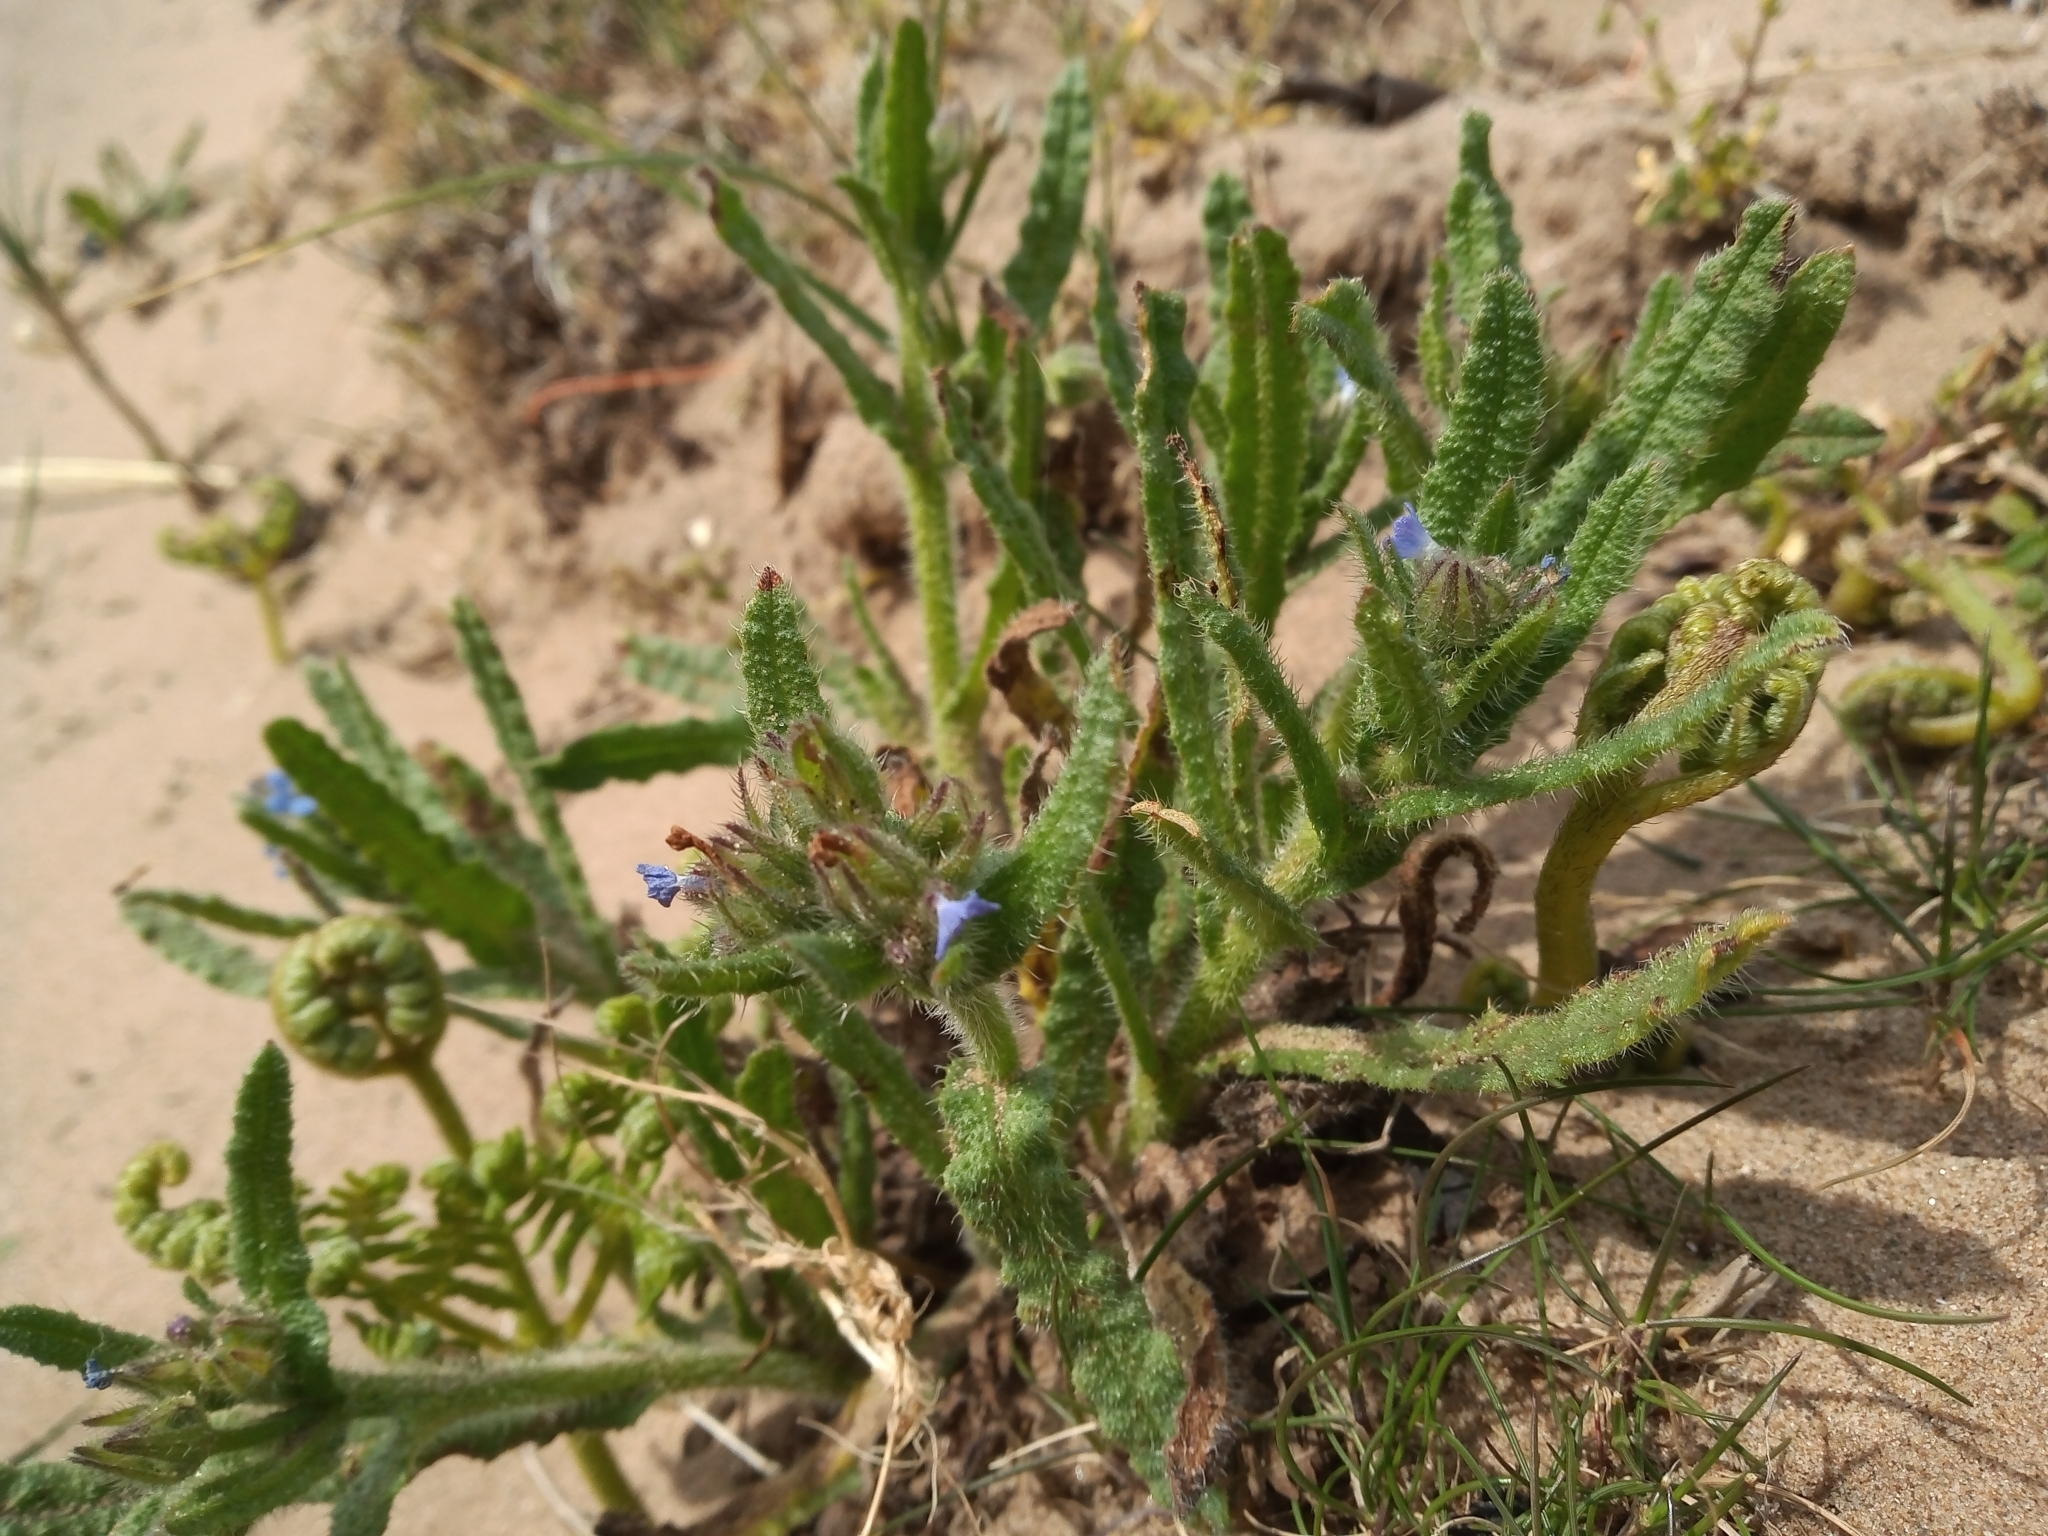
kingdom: Plantae
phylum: Tracheophyta
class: Magnoliopsida
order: Boraginales
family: Boraginaceae
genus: Lycopsis
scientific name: Lycopsis arvensis
